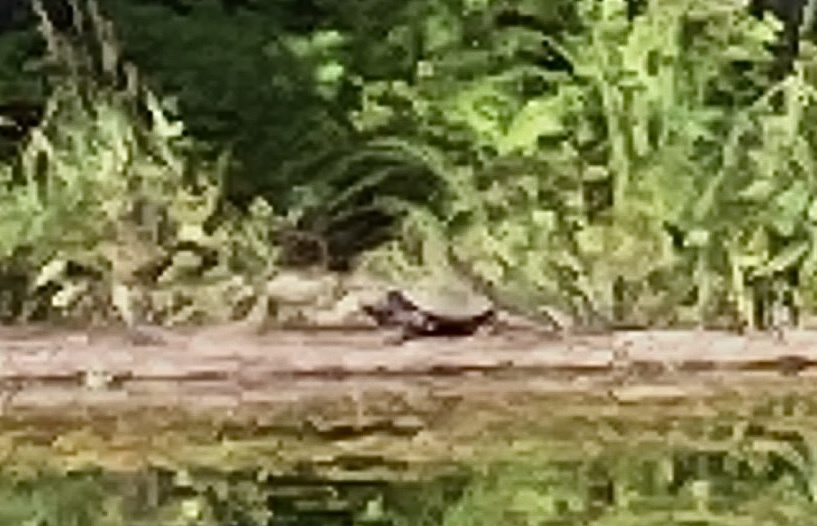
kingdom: Animalia
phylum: Chordata
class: Testudines
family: Chelydridae
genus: Chelydra
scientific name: Chelydra serpentina
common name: Common snapping turtle
